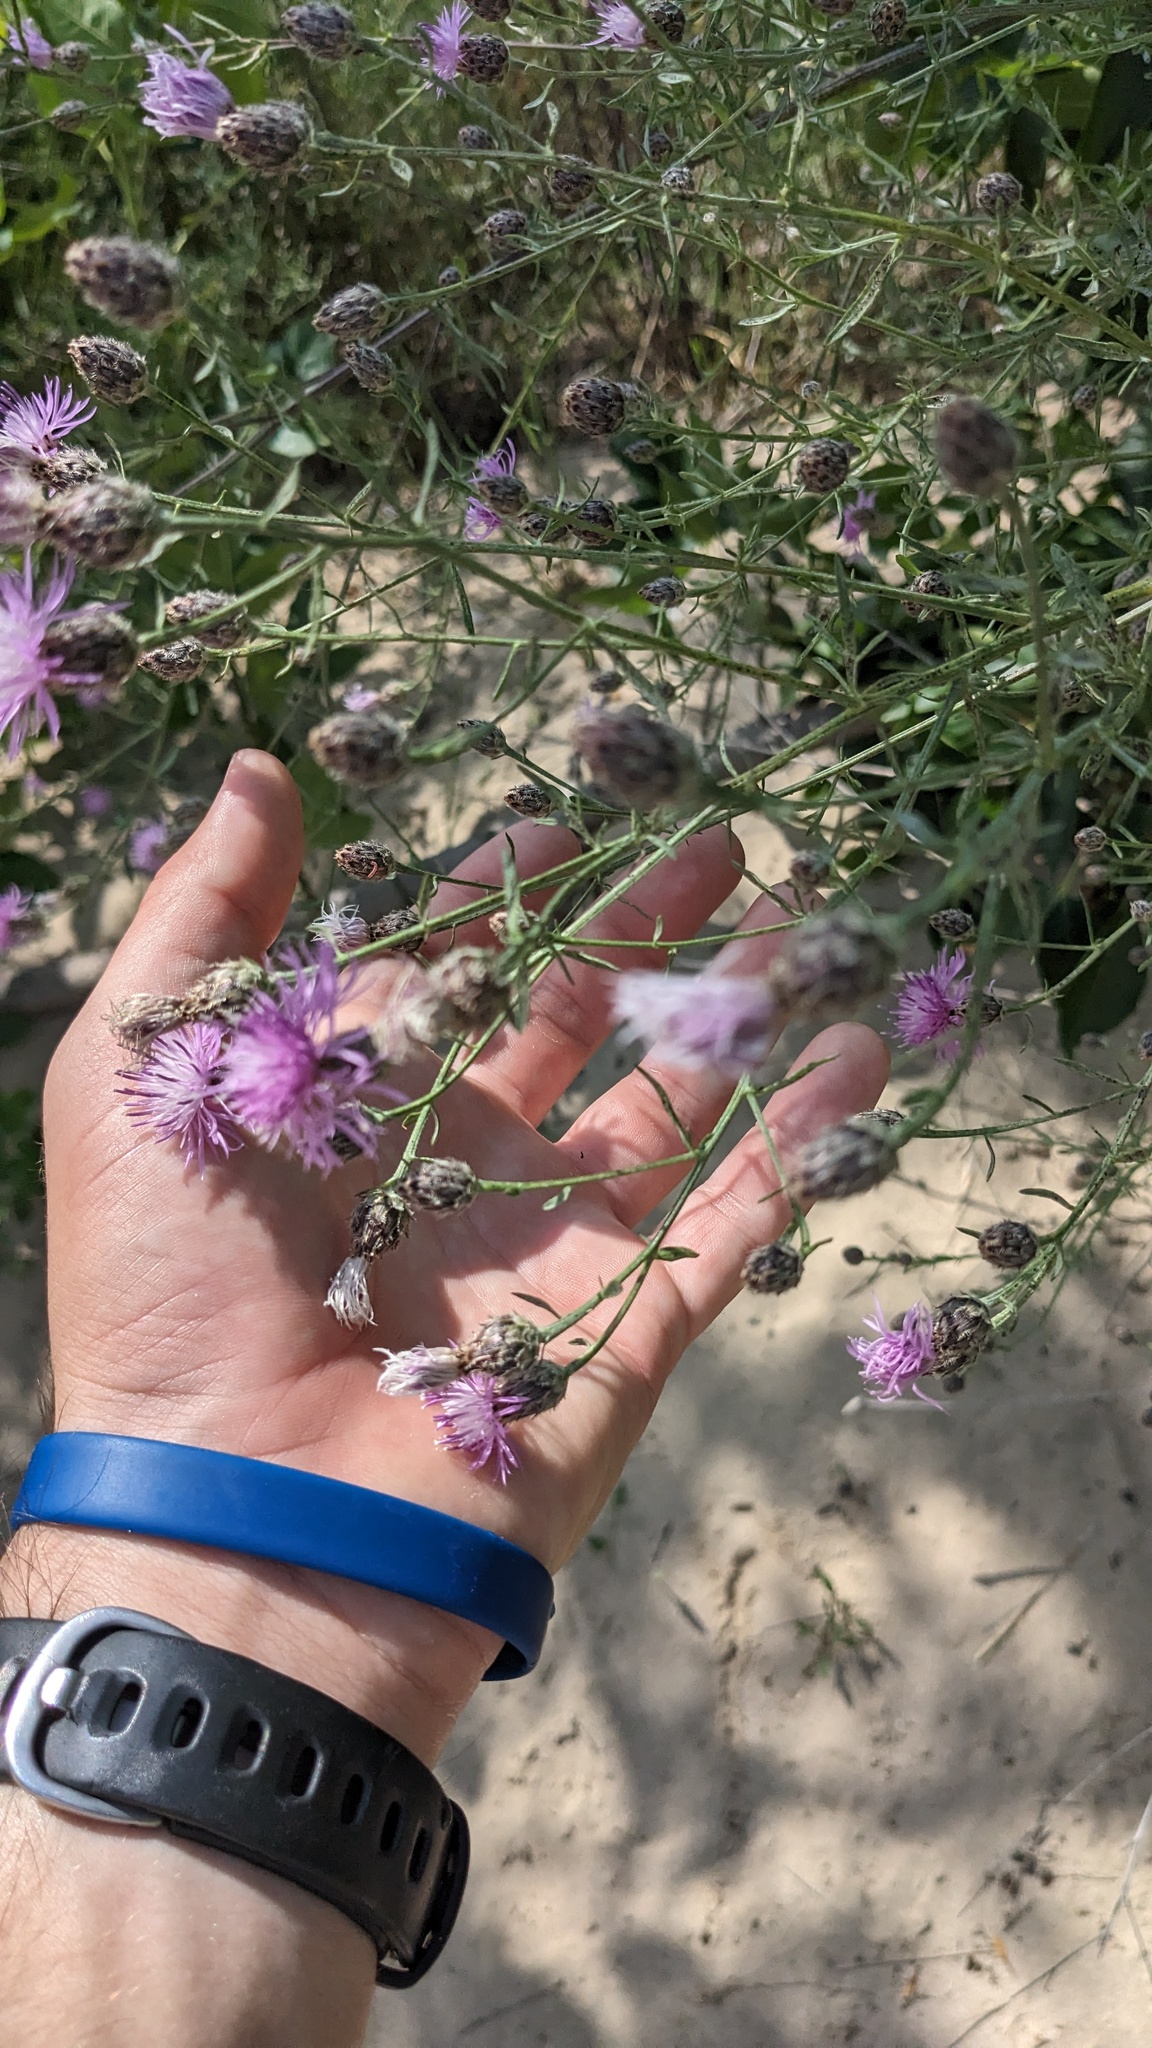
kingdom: Plantae
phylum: Tracheophyta
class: Magnoliopsida
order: Asterales
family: Asteraceae
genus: Centaurea
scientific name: Centaurea stoebe
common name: Spotted knapweed
